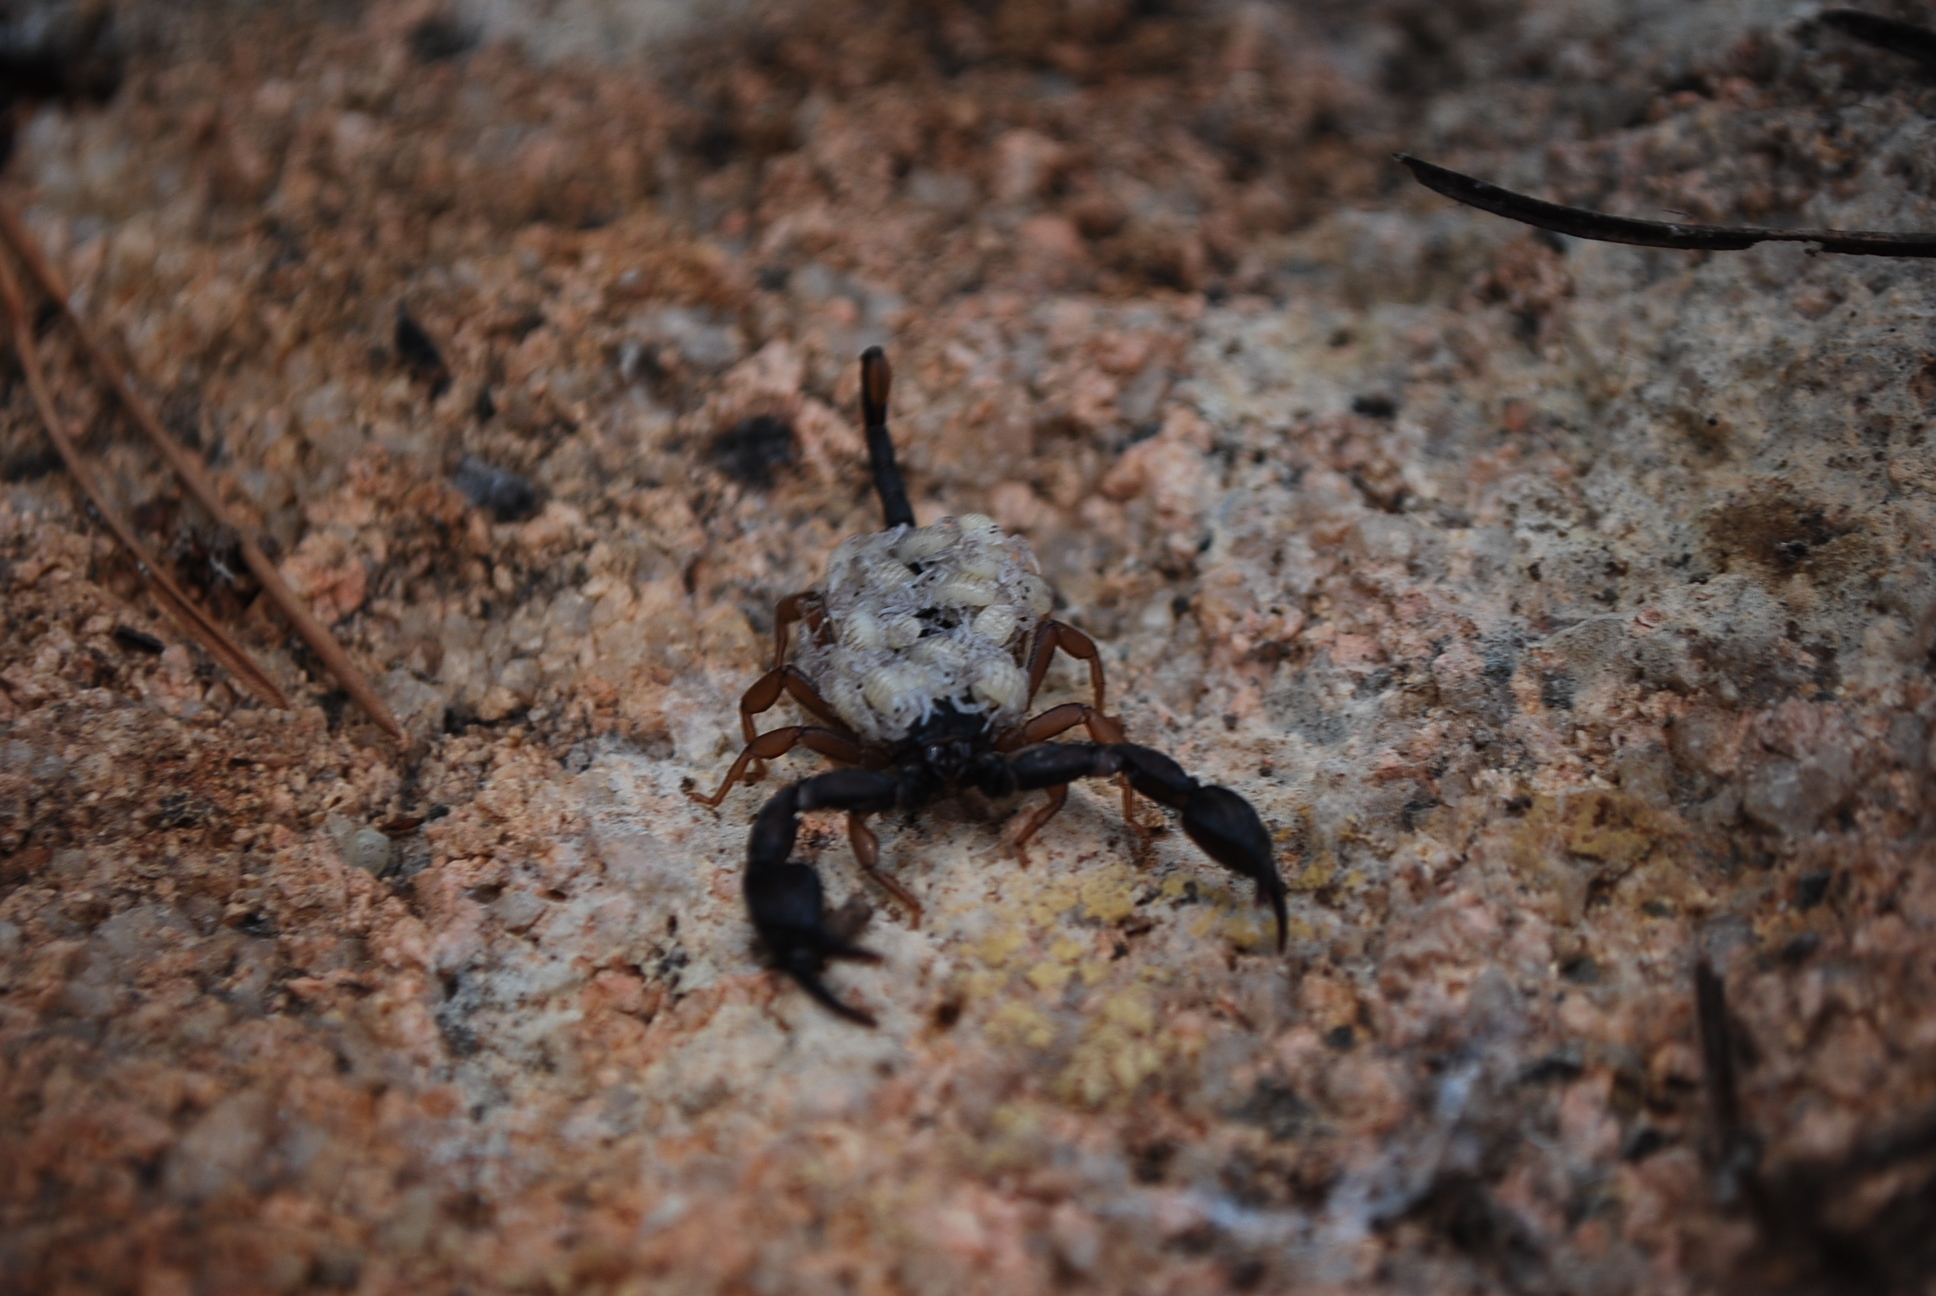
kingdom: Animalia
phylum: Arthropoda
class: Arachnida
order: Scorpiones
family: Euscorpiidae
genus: Euscorpius
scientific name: Euscorpius flavicaudis
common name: European yellow-tailed scorpion
